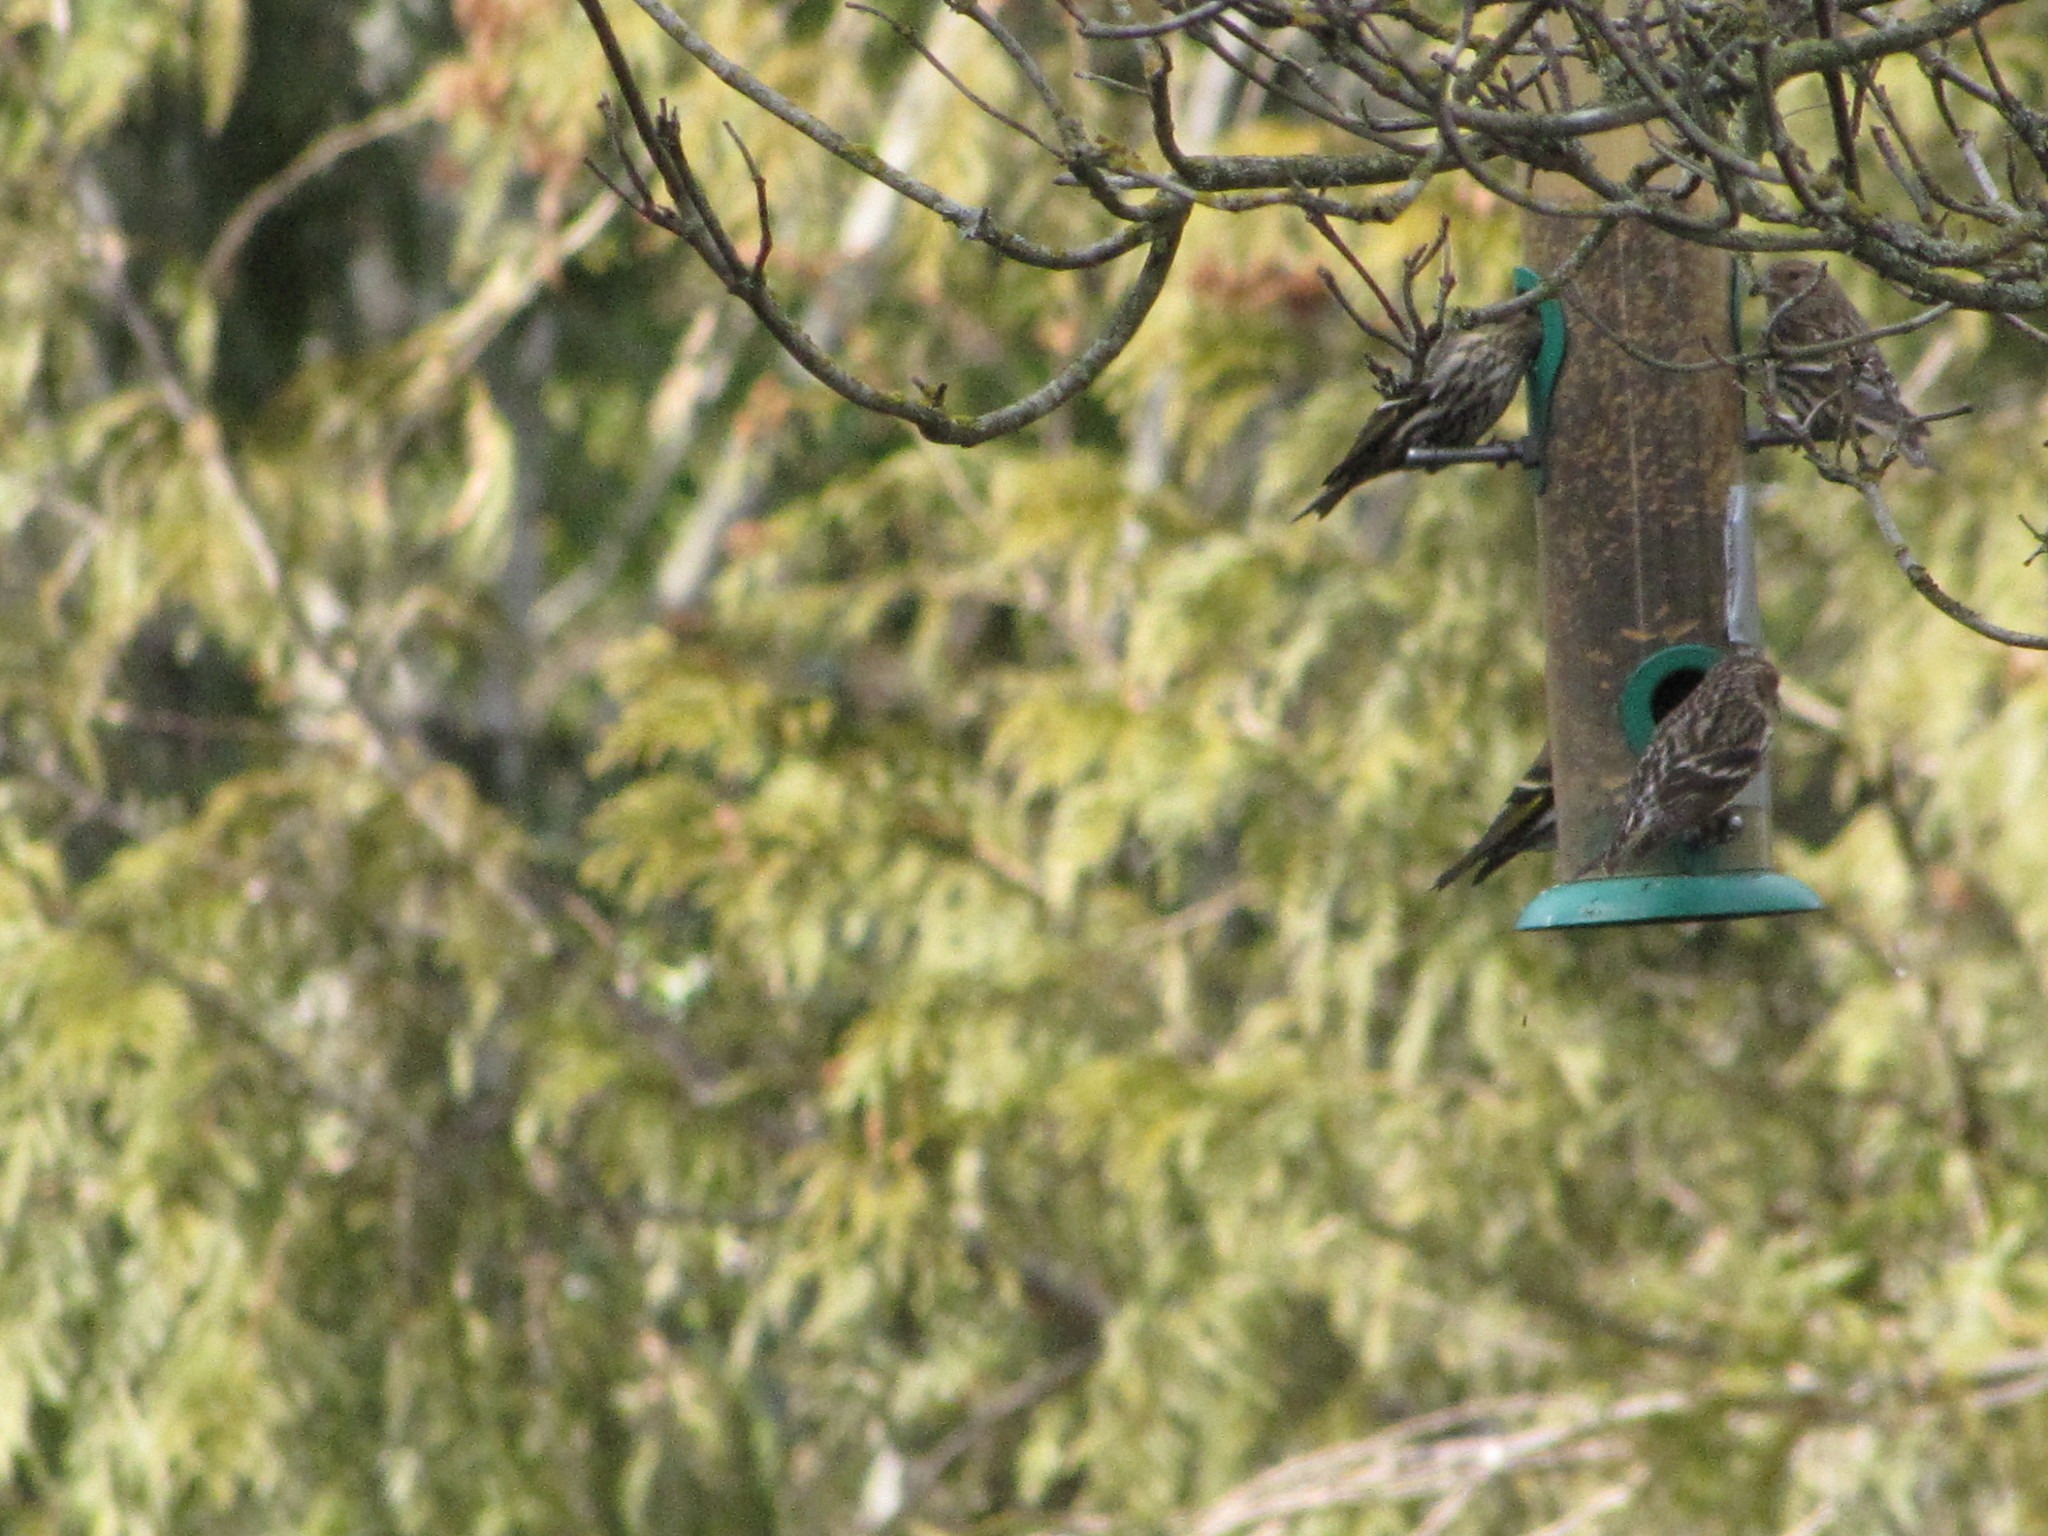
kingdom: Animalia
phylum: Chordata
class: Aves
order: Passeriformes
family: Fringillidae
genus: Spinus
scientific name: Spinus pinus
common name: Pine siskin
